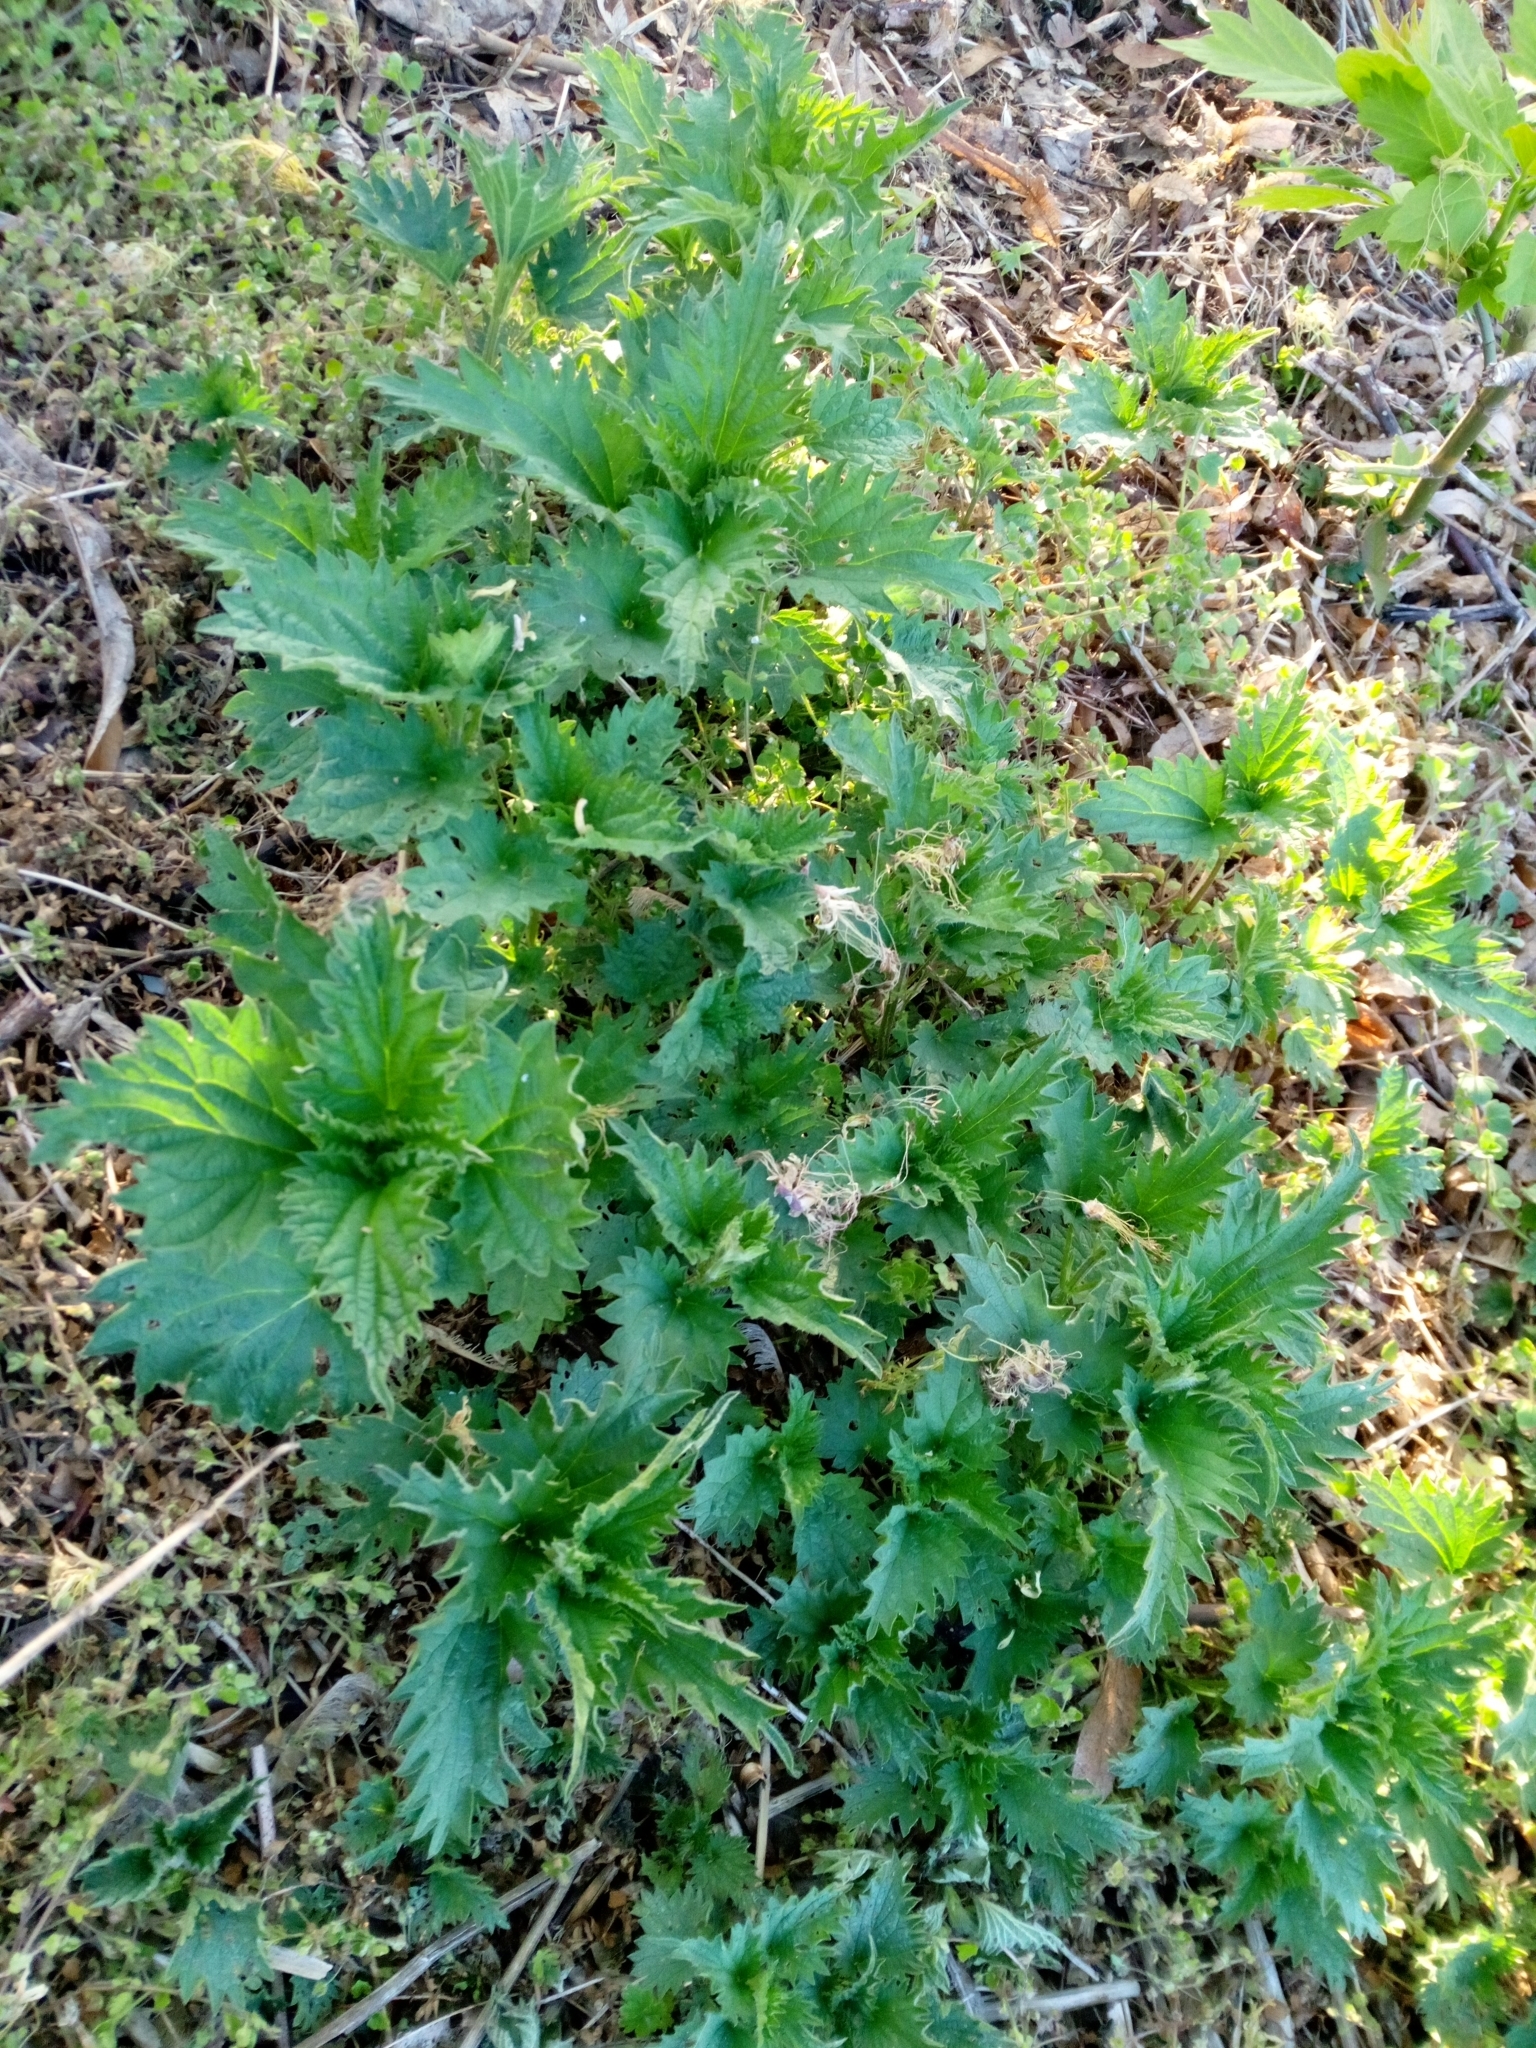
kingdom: Plantae
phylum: Tracheophyta
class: Magnoliopsida
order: Rosales
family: Urticaceae
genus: Urtica
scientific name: Urtica dioica
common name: Common nettle
